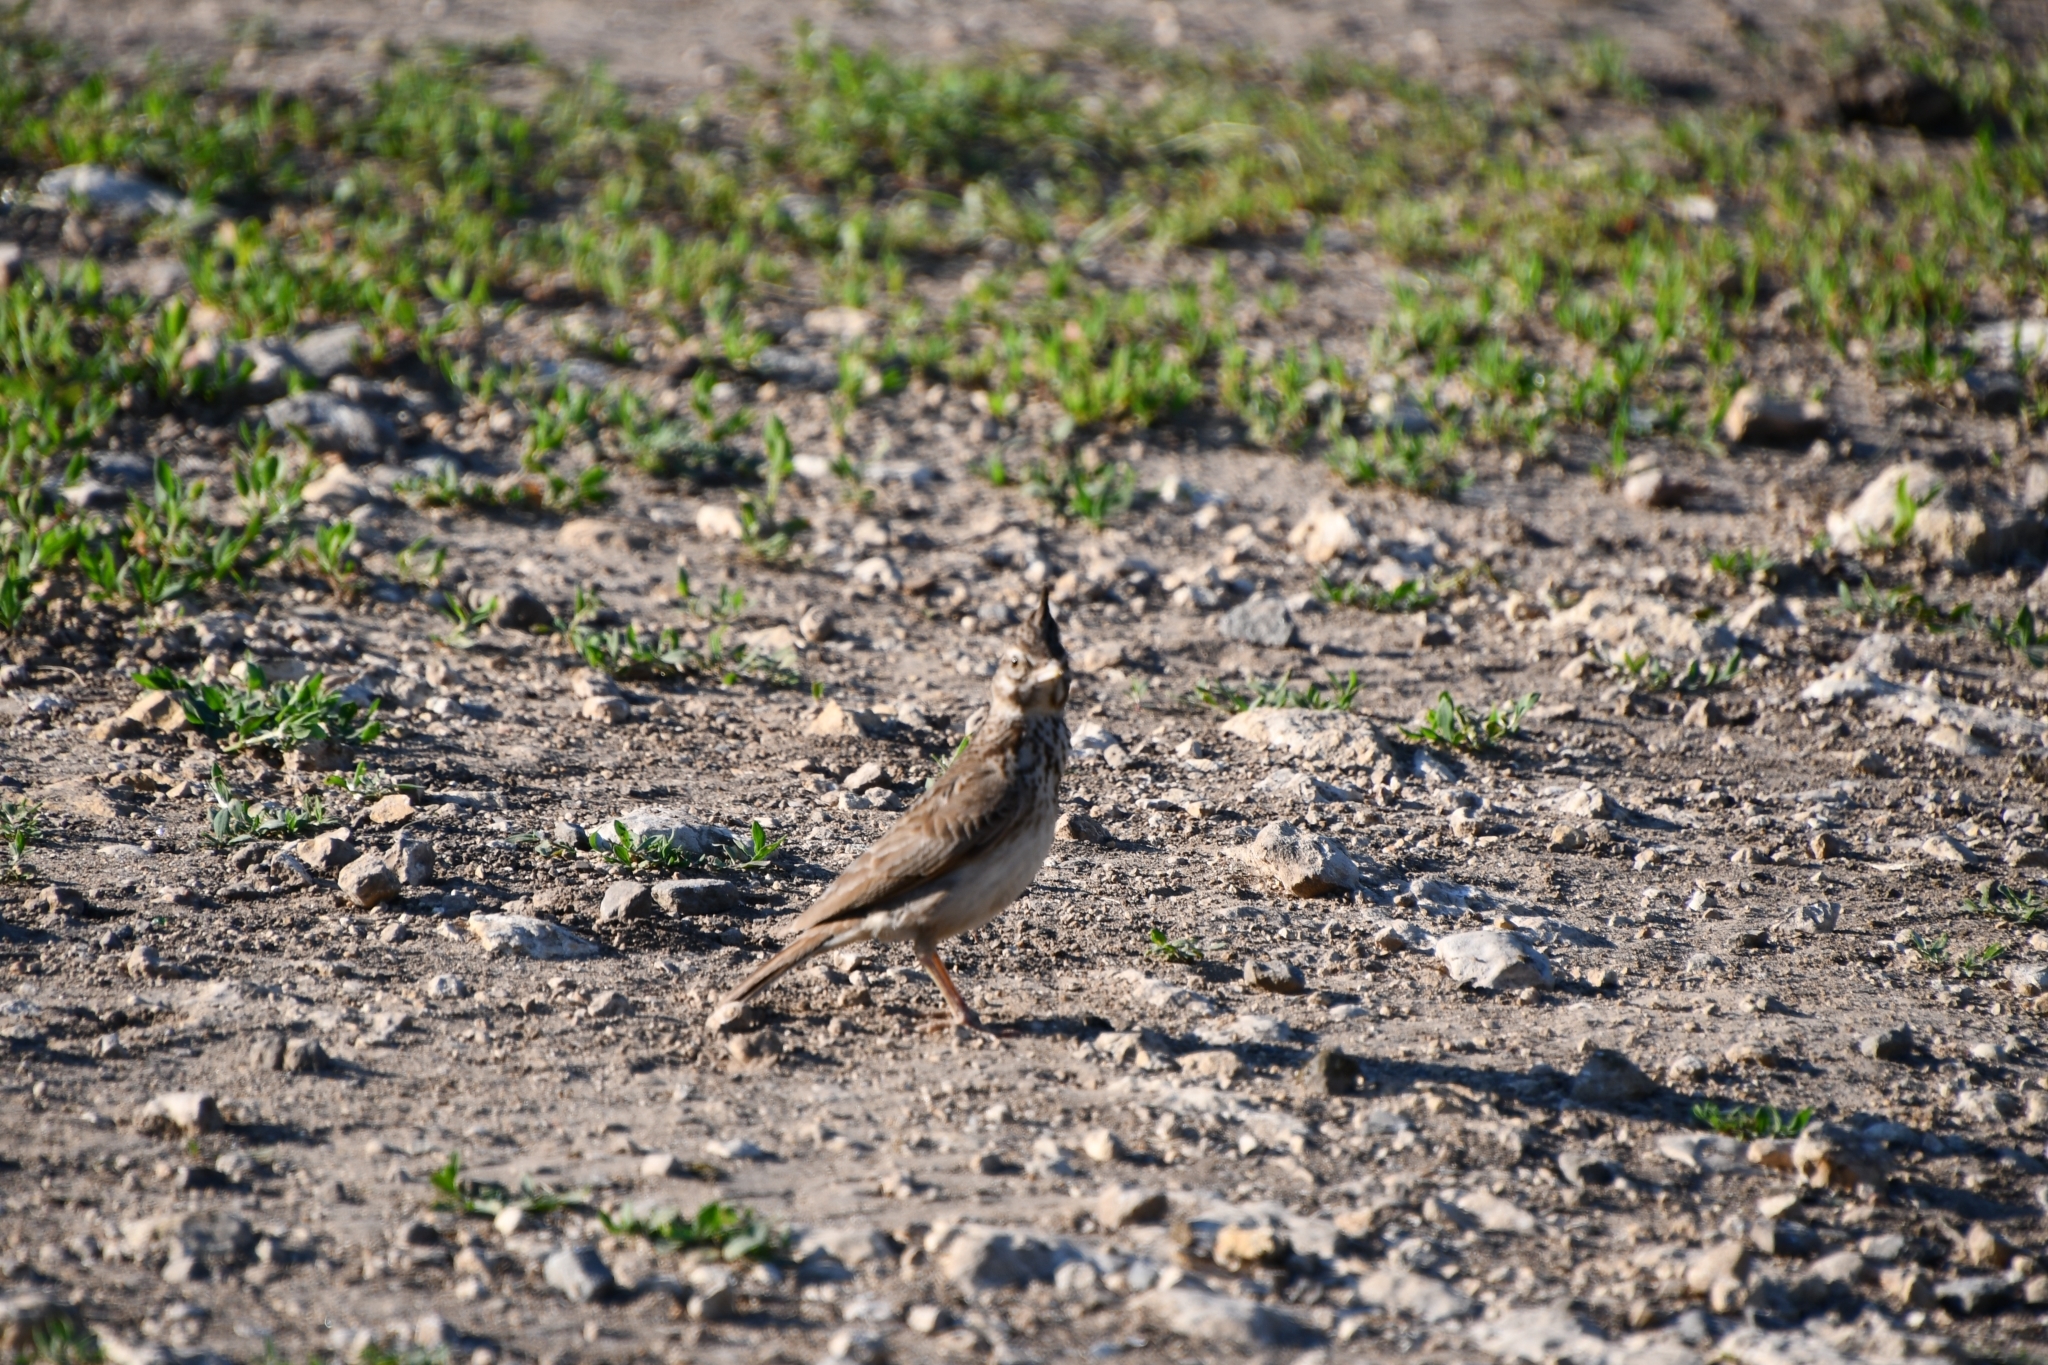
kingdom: Animalia
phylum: Chordata
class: Aves
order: Passeriformes
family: Alaudidae
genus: Galerida
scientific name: Galerida cristata
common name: Crested lark
